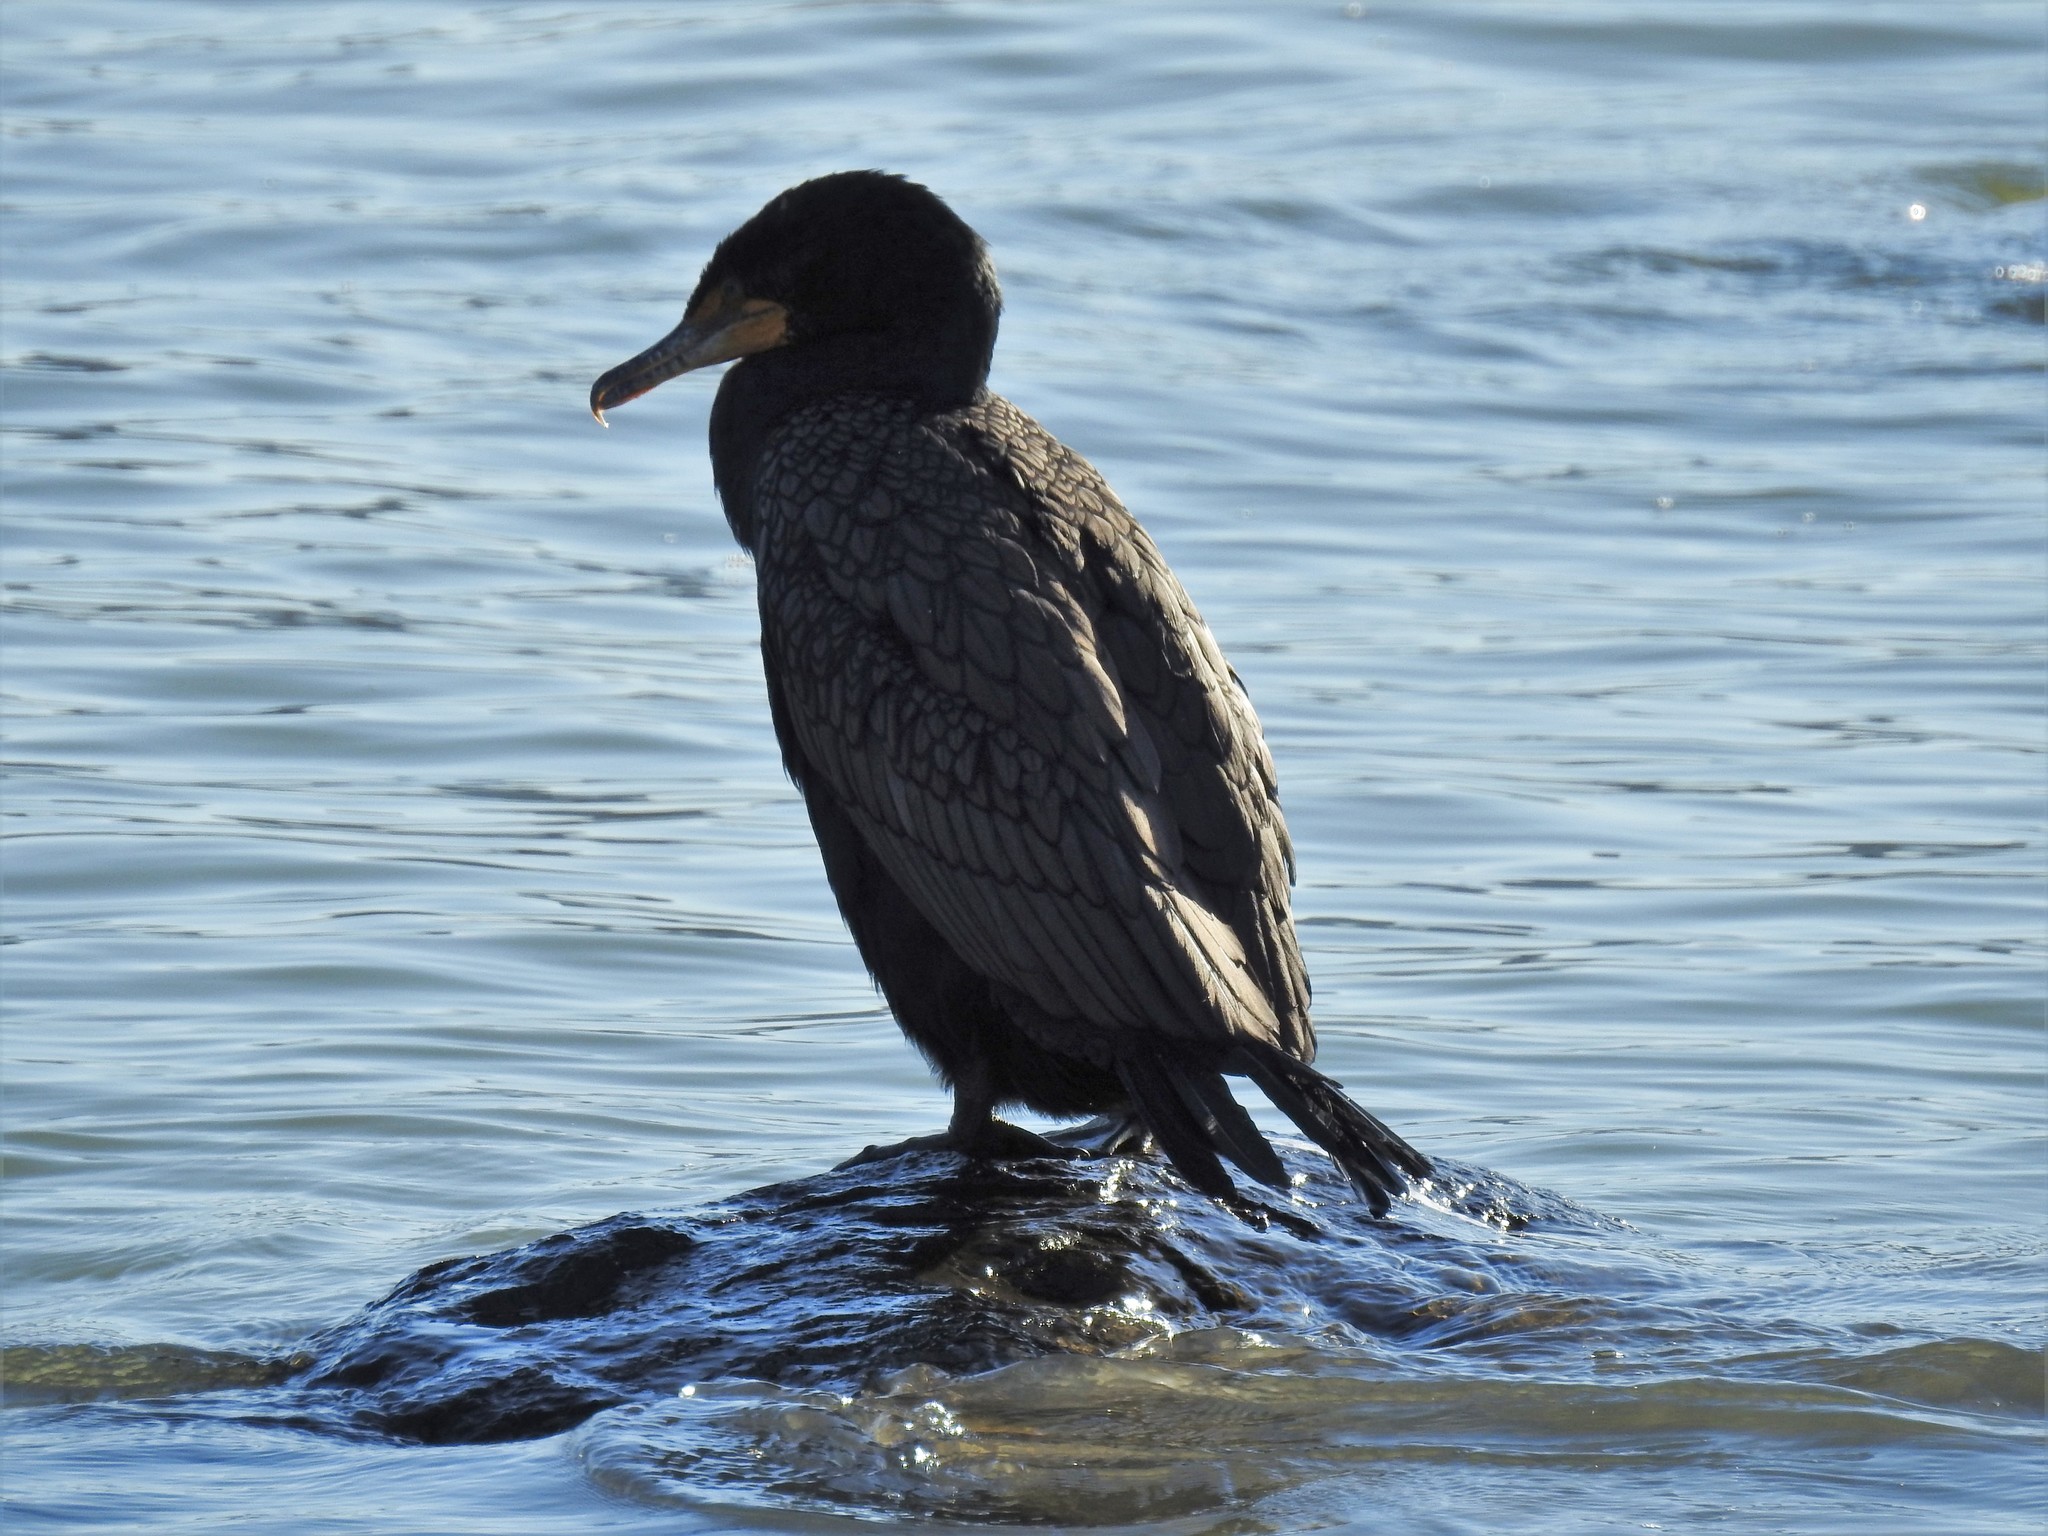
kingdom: Animalia
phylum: Chordata
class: Aves
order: Suliformes
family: Phalacrocoracidae
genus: Phalacrocorax
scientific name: Phalacrocorax auritus
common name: Double-crested cormorant
